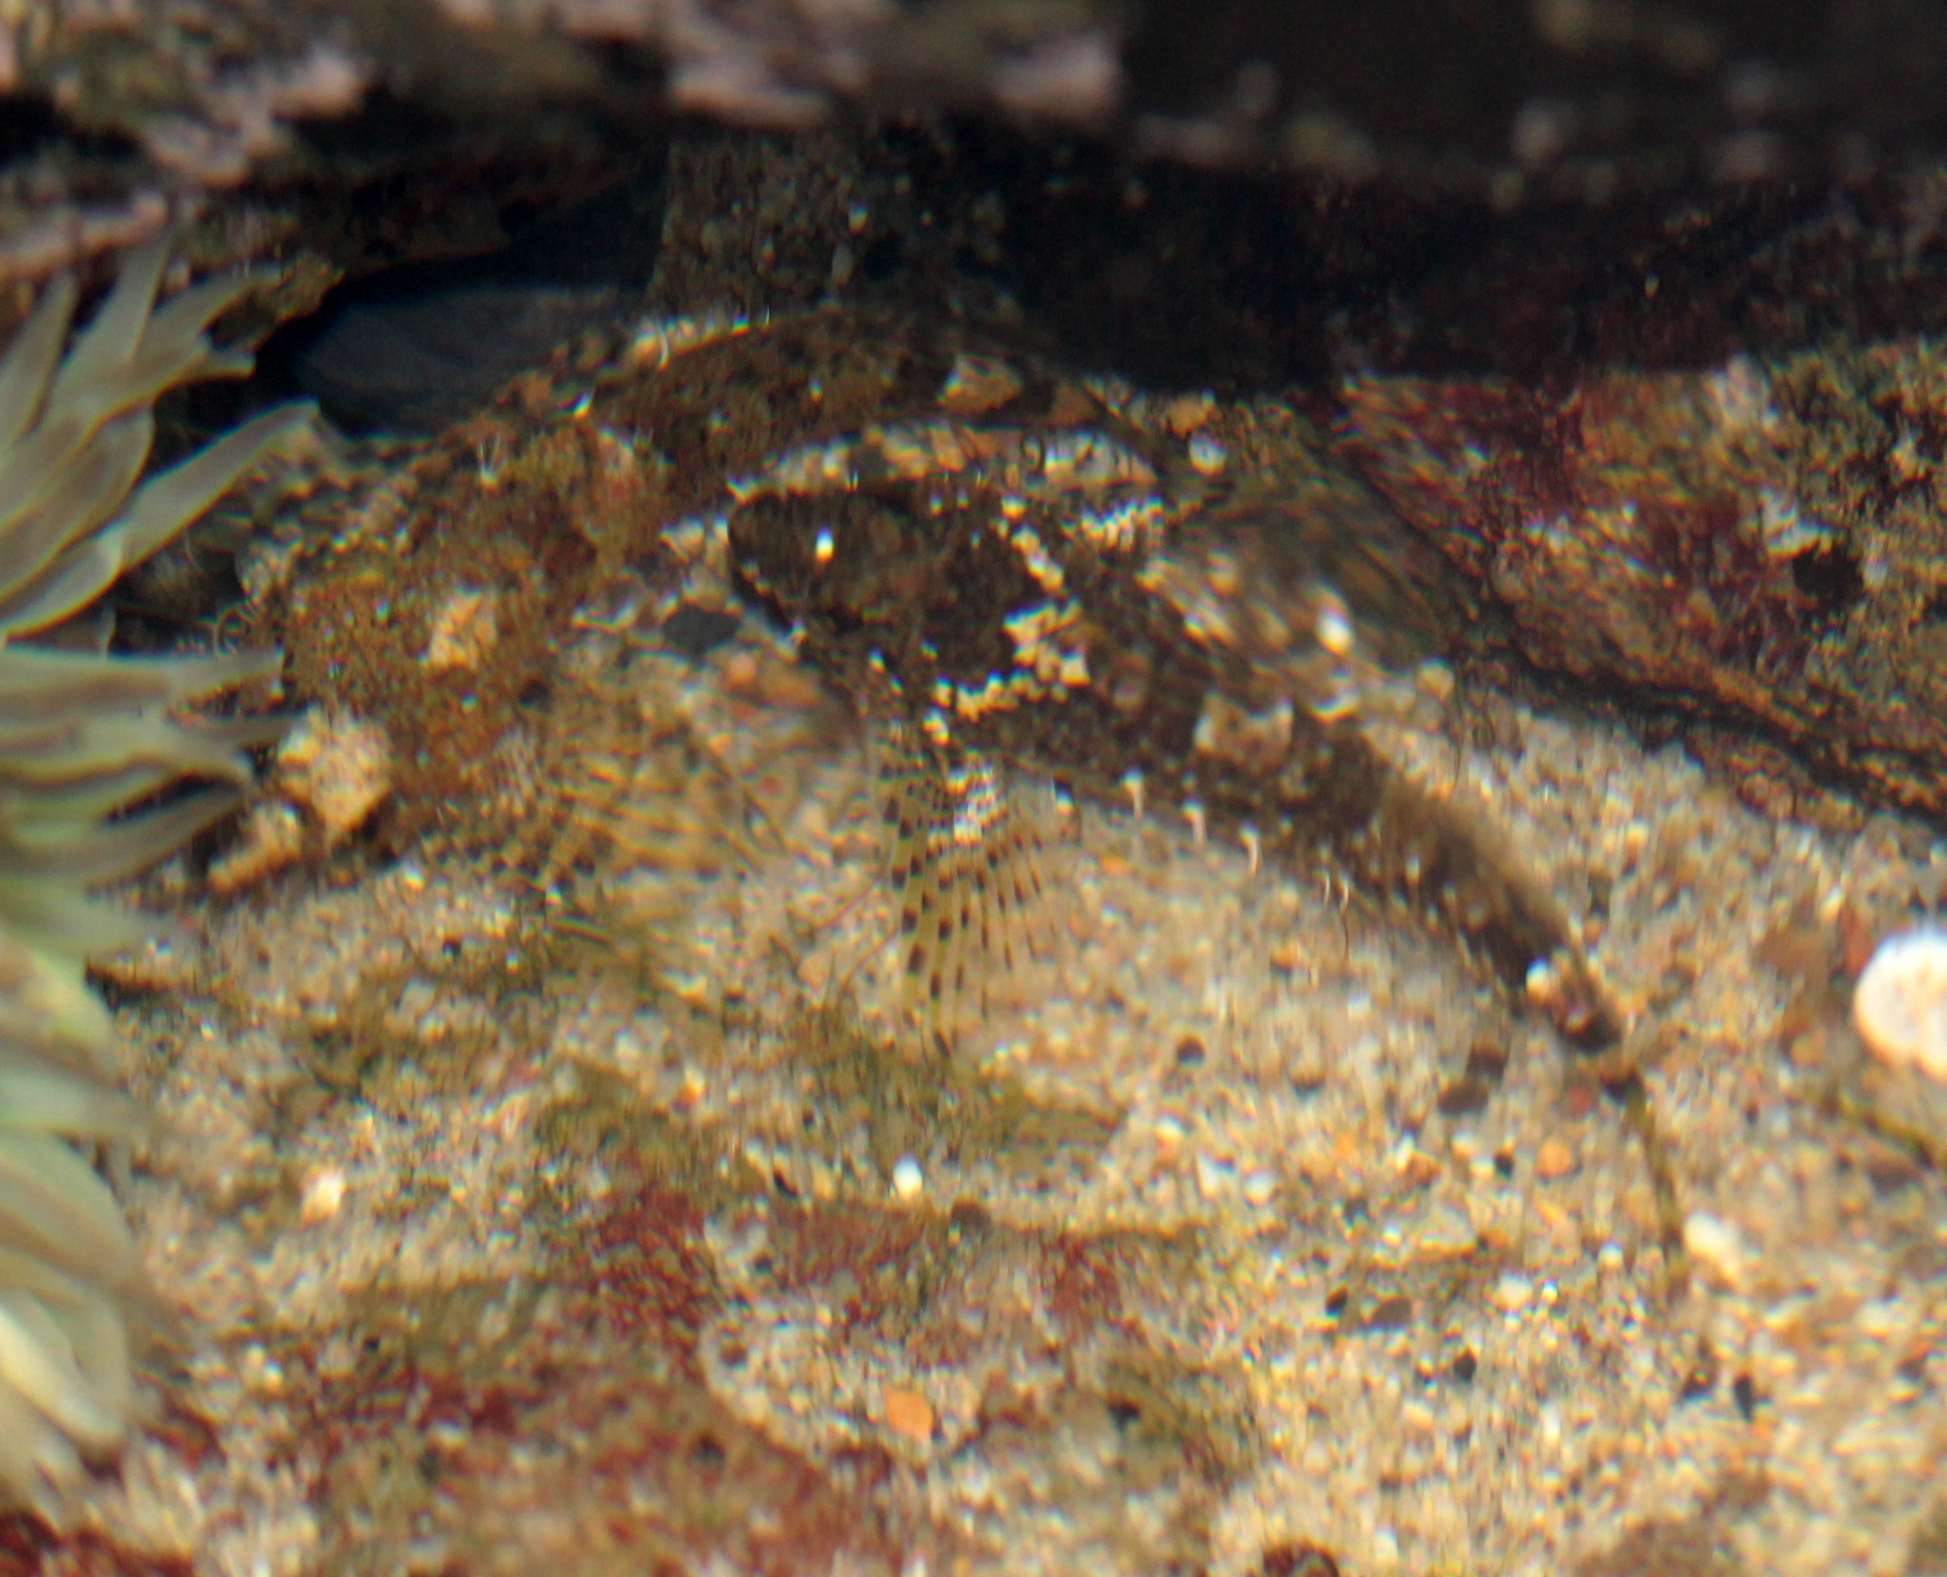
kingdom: Animalia
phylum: Chordata
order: Scorpaeniformes
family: Cottidae
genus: Clinocottus
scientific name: Clinocottus analis
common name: Woolly sculpin
